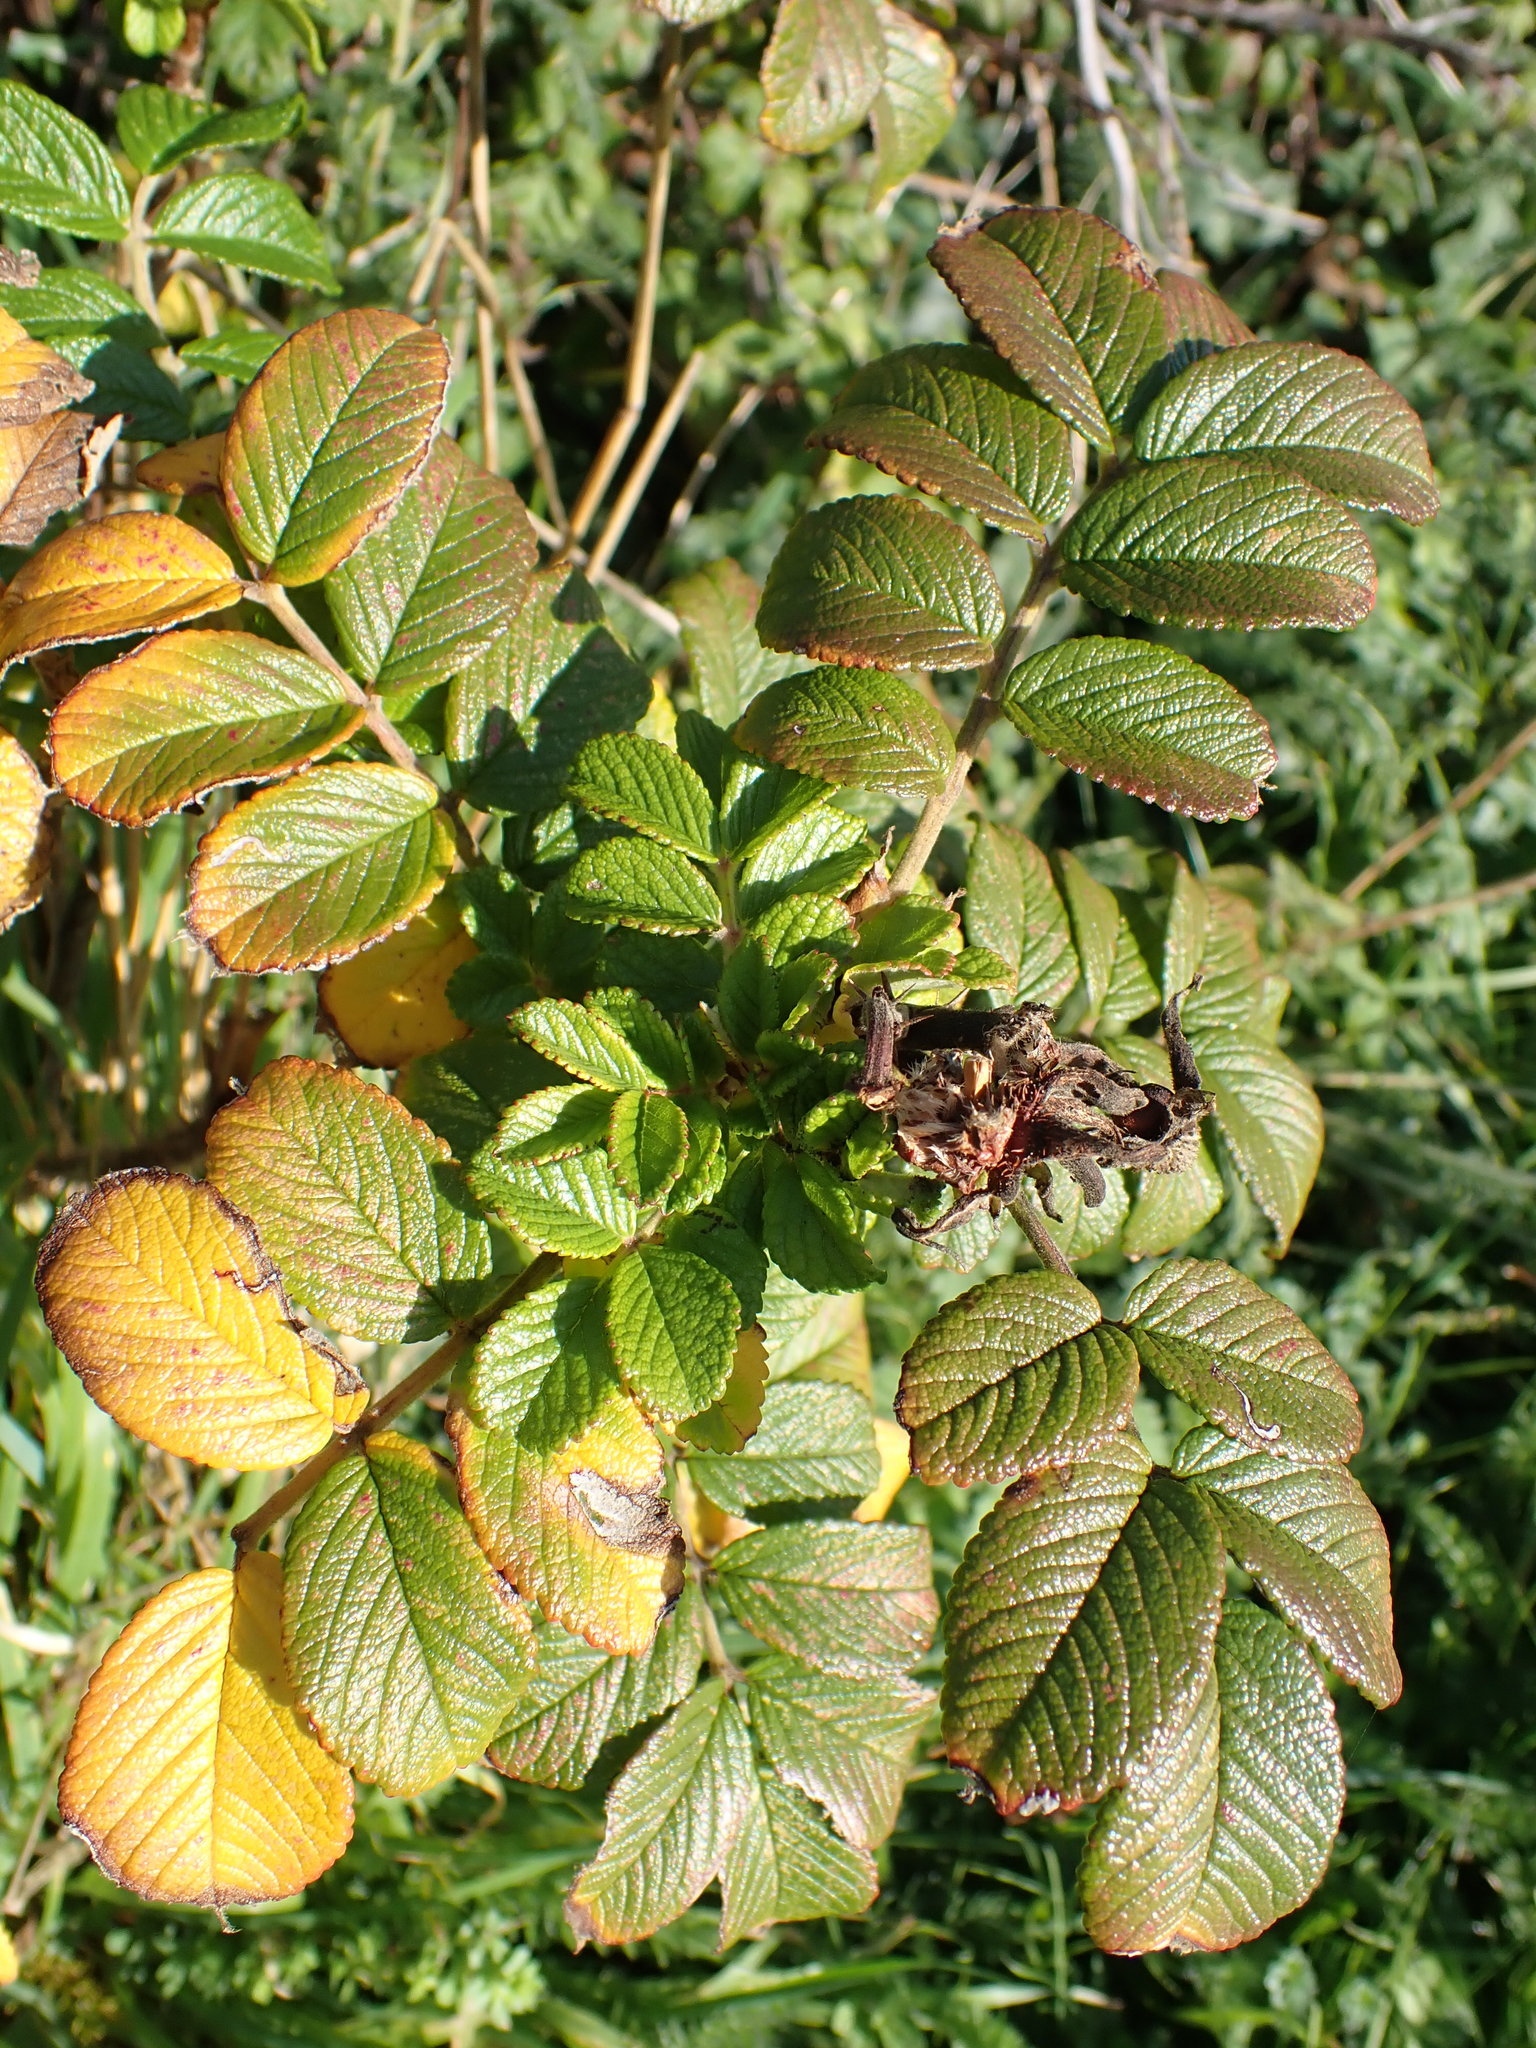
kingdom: Plantae
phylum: Tracheophyta
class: Magnoliopsida
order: Rosales
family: Rosaceae
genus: Rosa
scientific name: Rosa rugosa
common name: Japanese rose
